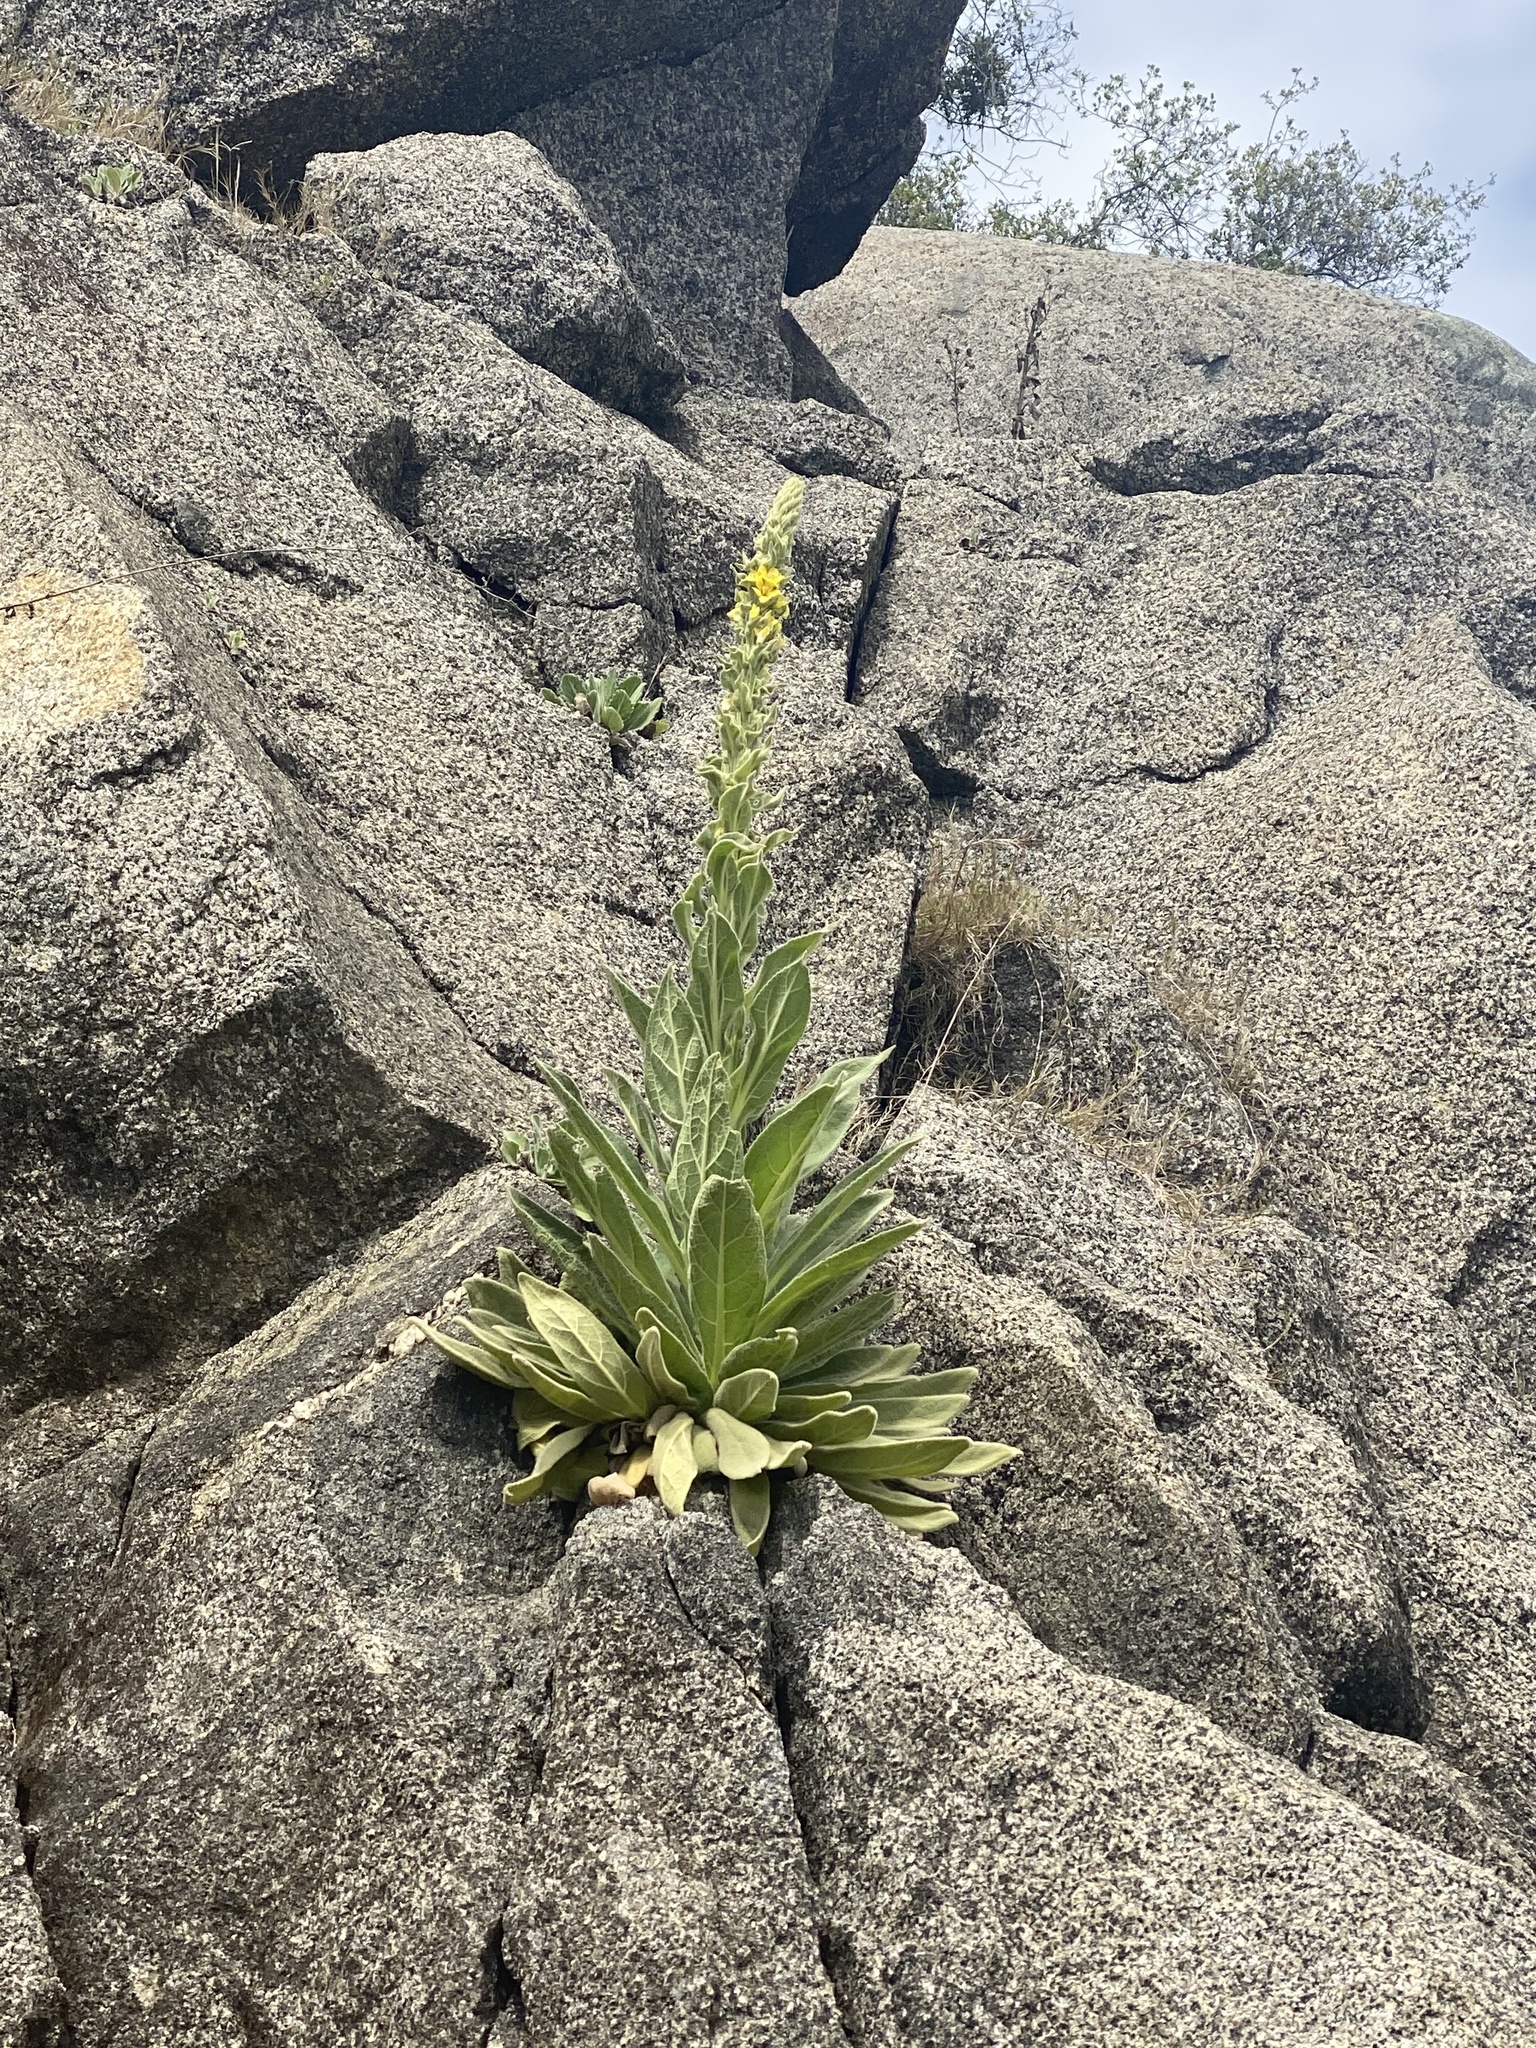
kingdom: Plantae
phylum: Tracheophyta
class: Magnoliopsida
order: Lamiales
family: Scrophulariaceae
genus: Verbascum
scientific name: Verbascum thapsus
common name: Common mullein
